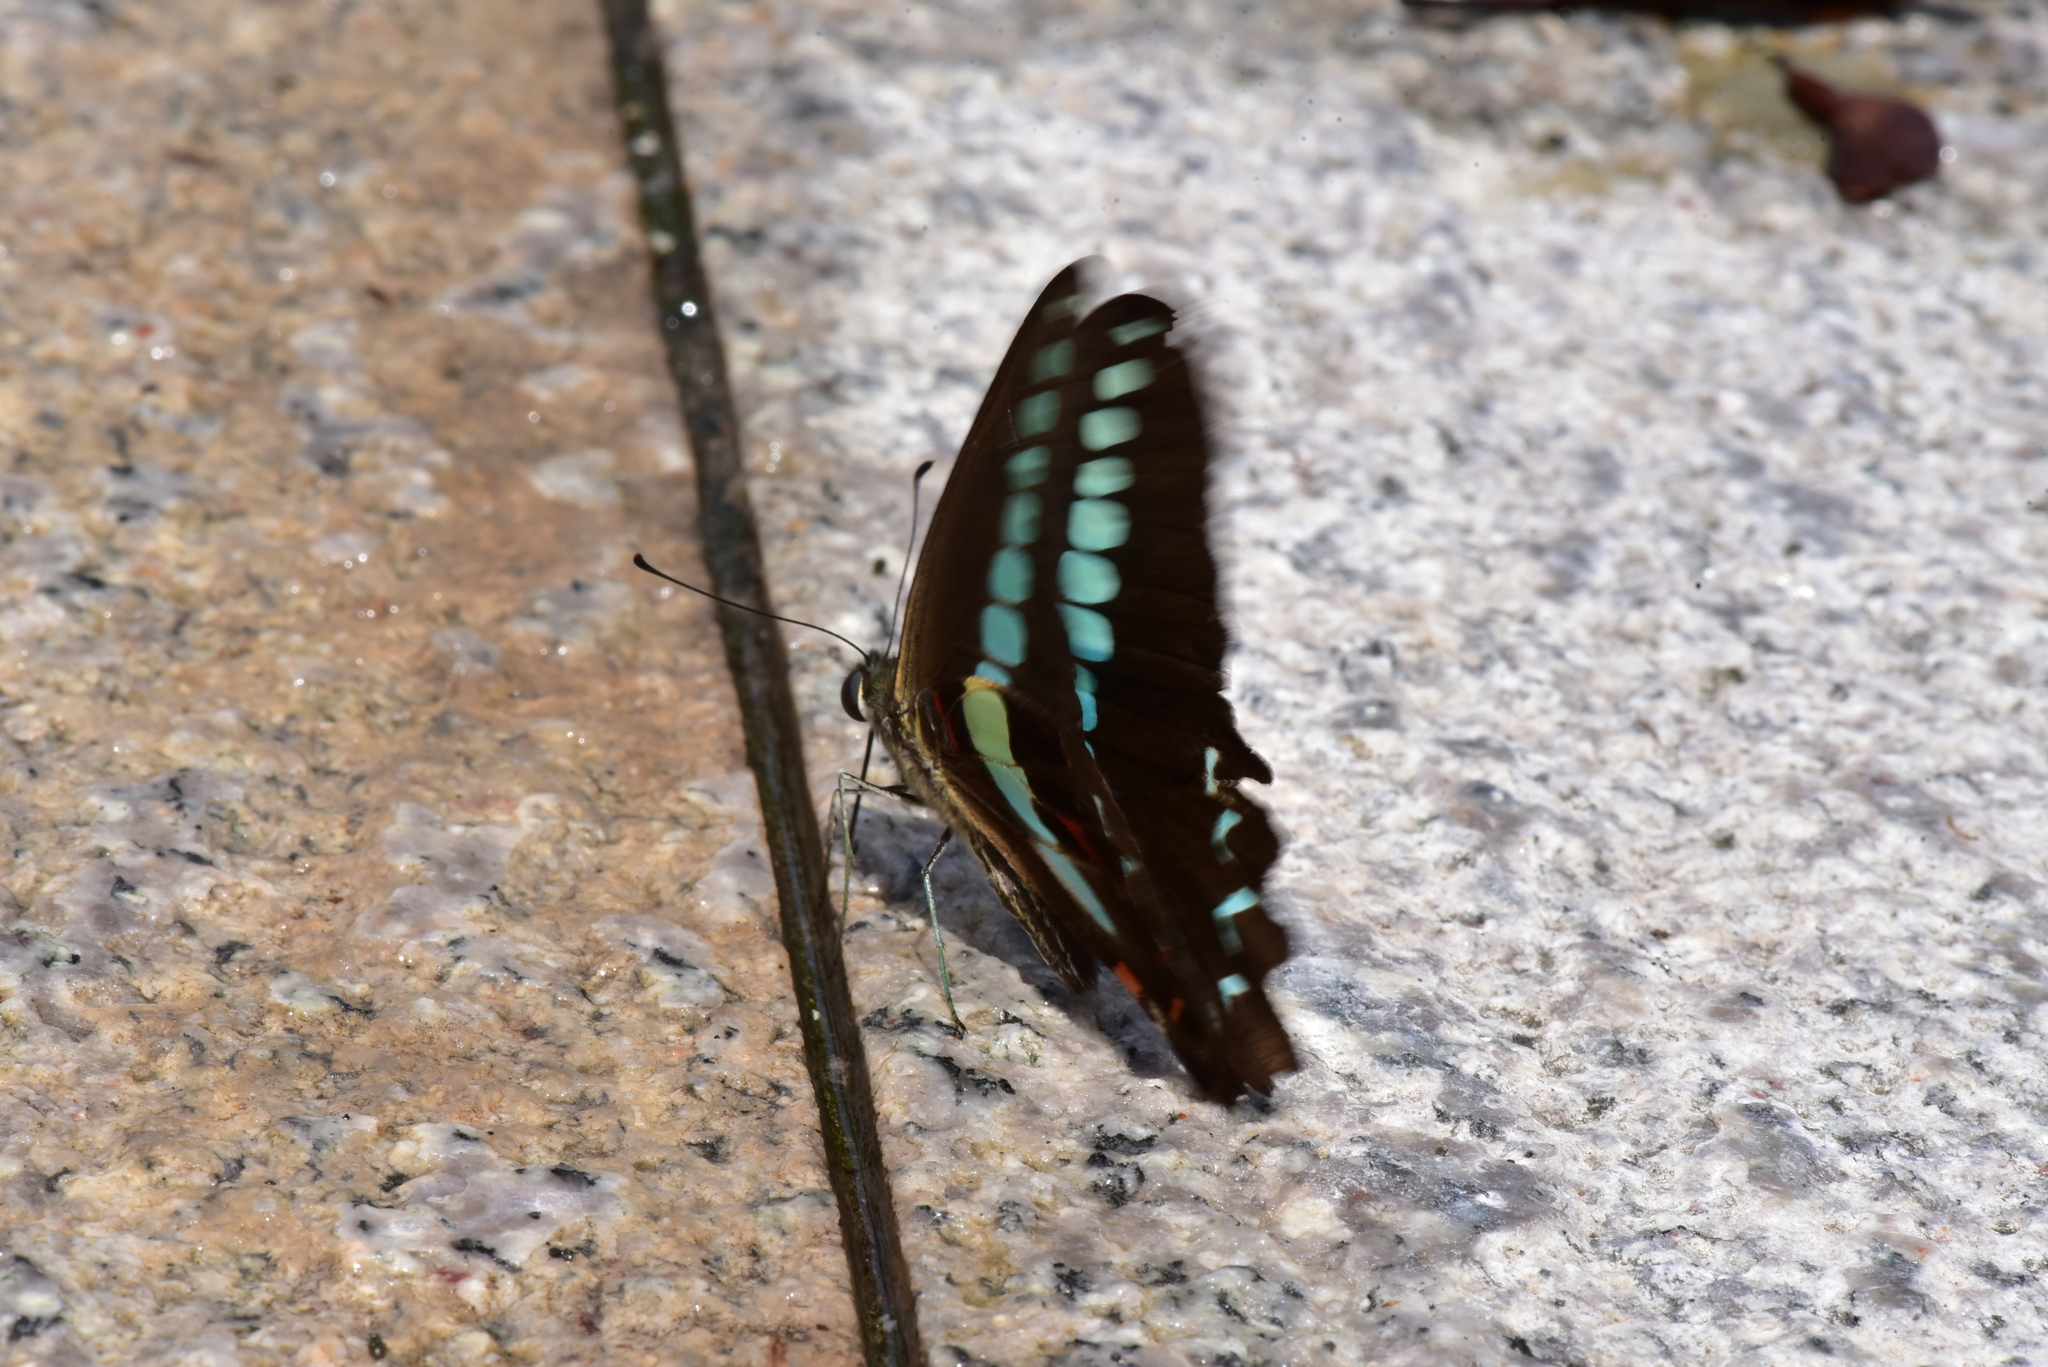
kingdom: Fungi
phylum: Ascomycota
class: Sordariomycetes
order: Microascales
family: Microascaceae
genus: Graphium
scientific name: Graphium sarpedon
